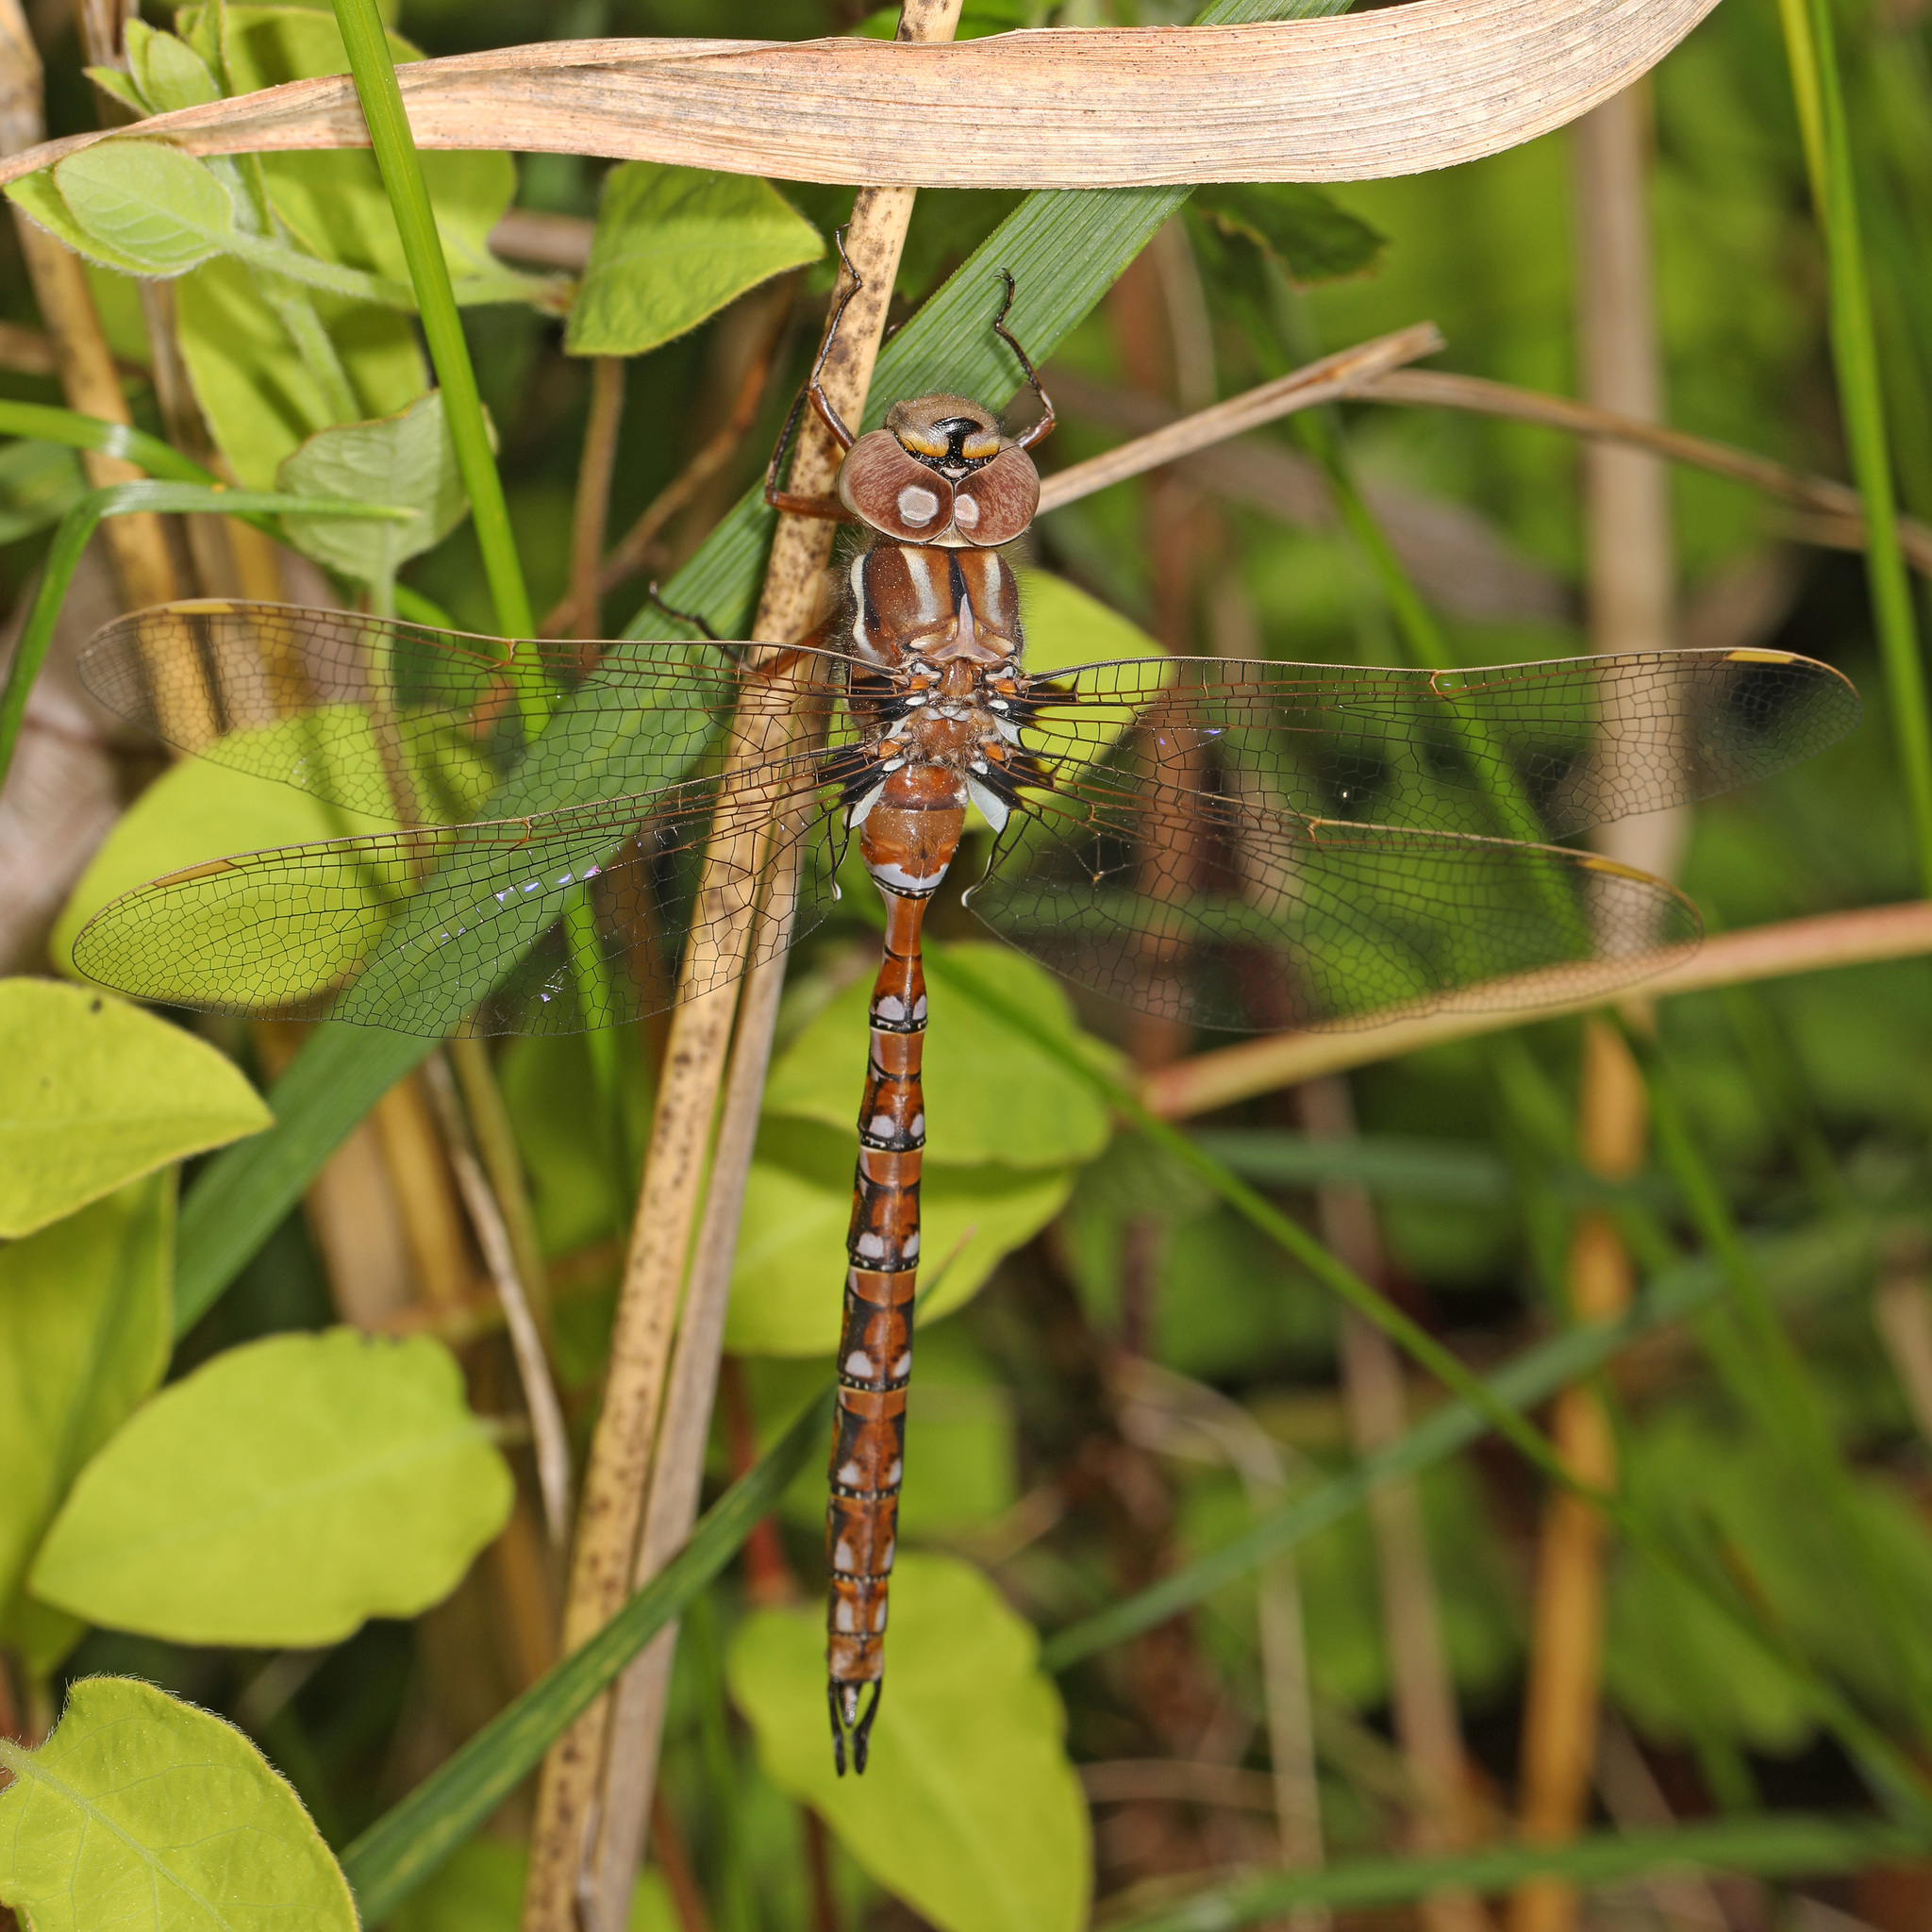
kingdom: Animalia
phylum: Arthropoda
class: Insecta
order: Odonata
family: Aeshnidae
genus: Basiaeschna
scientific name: Basiaeschna janata
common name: Springtime darner
